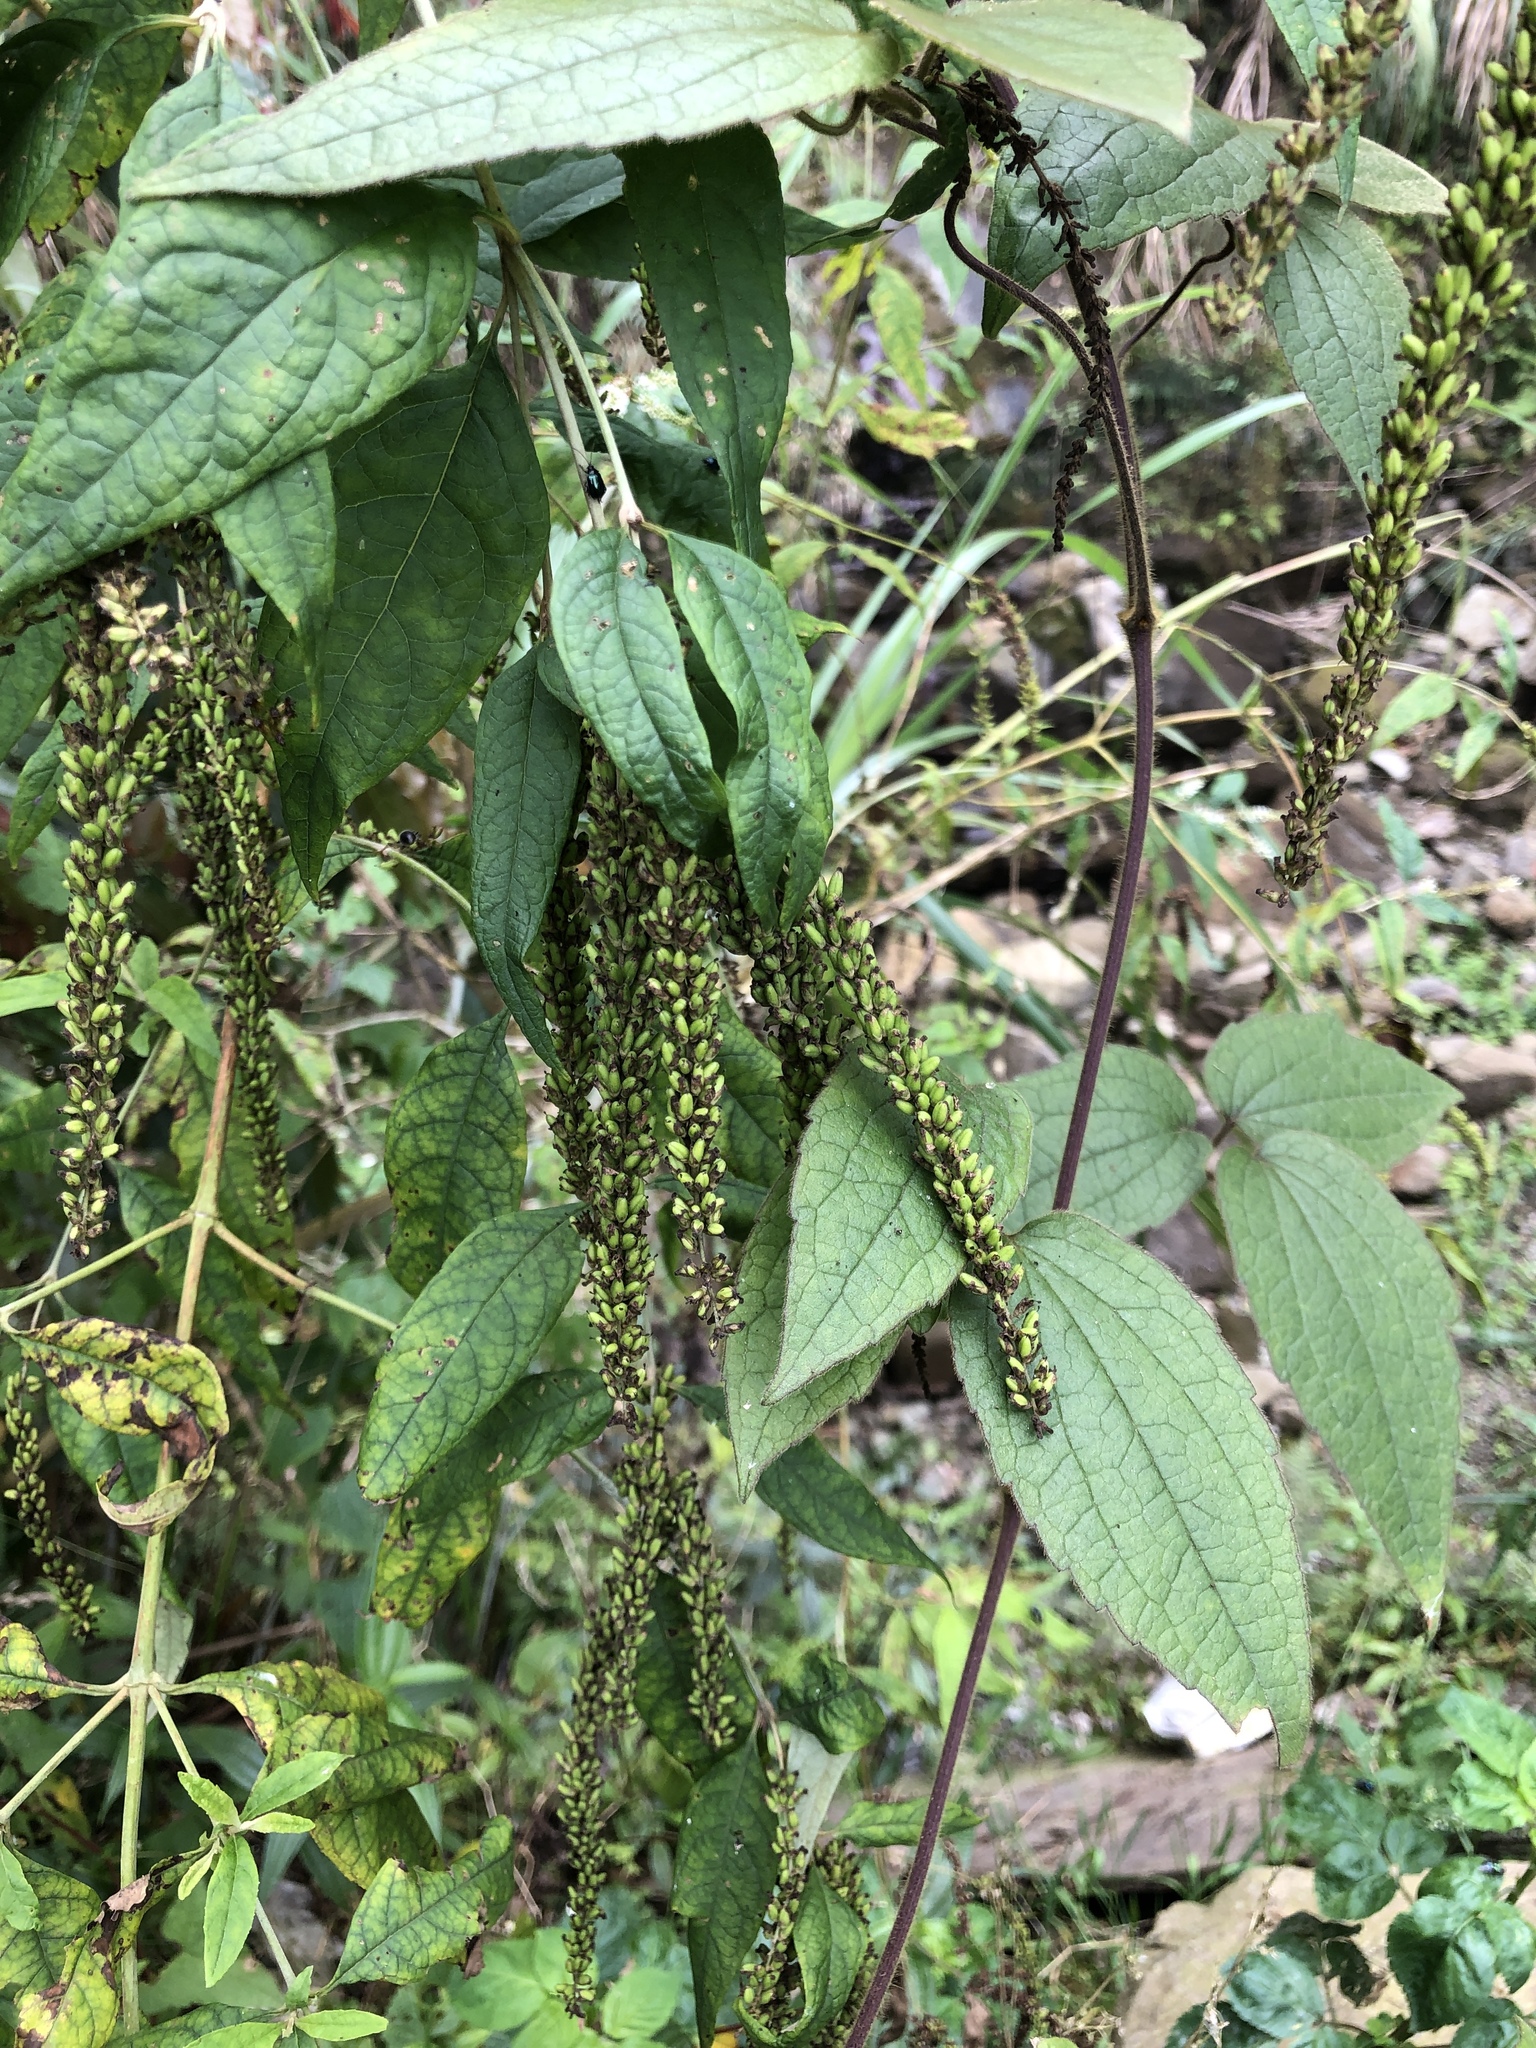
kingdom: Plantae
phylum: Tracheophyta
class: Magnoliopsida
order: Lamiales
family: Scrophulariaceae
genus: Buddleja
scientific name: Buddleja asiatica
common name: Dog tail
